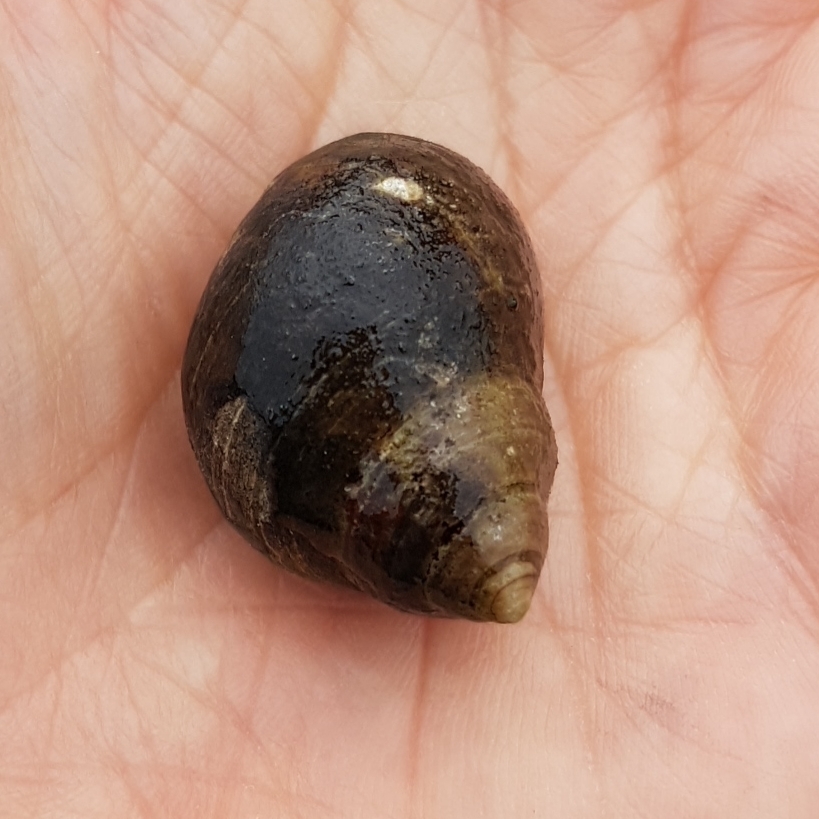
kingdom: Animalia
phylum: Mollusca
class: Gastropoda
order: Littorinimorpha
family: Littorinidae
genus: Littorina
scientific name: Littorina littorea
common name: Common periwinkle
